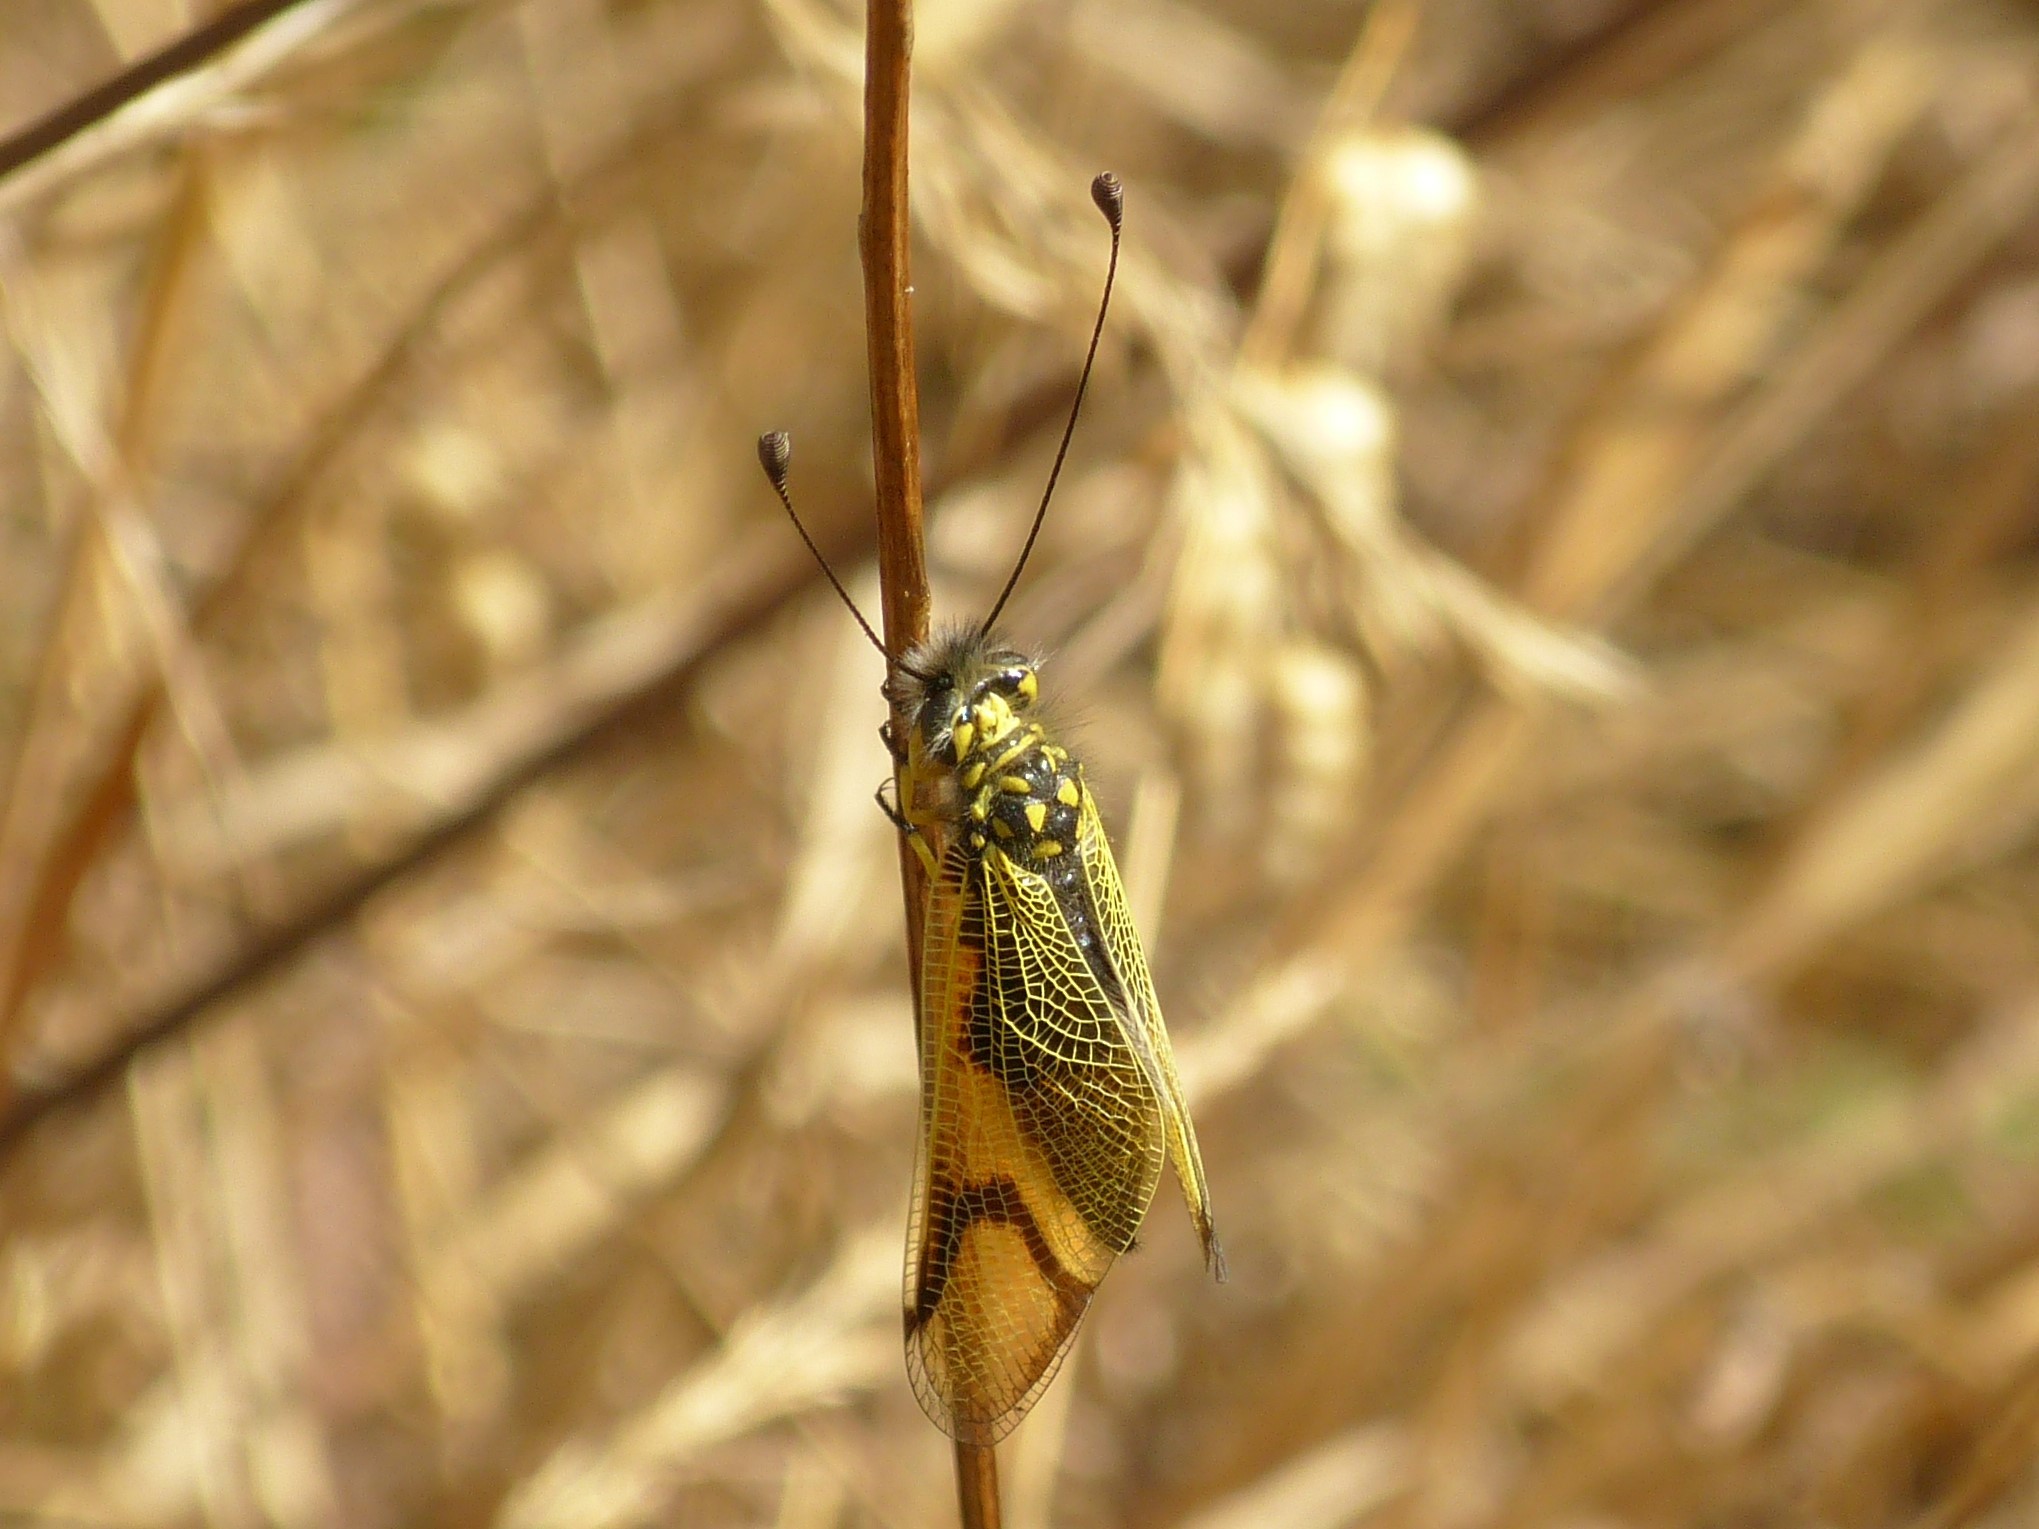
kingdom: Animalia
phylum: Arthropoda
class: Insecta
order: Neuroptera
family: Ascalaphidae
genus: Libelloides
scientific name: Libelloides longicornis
